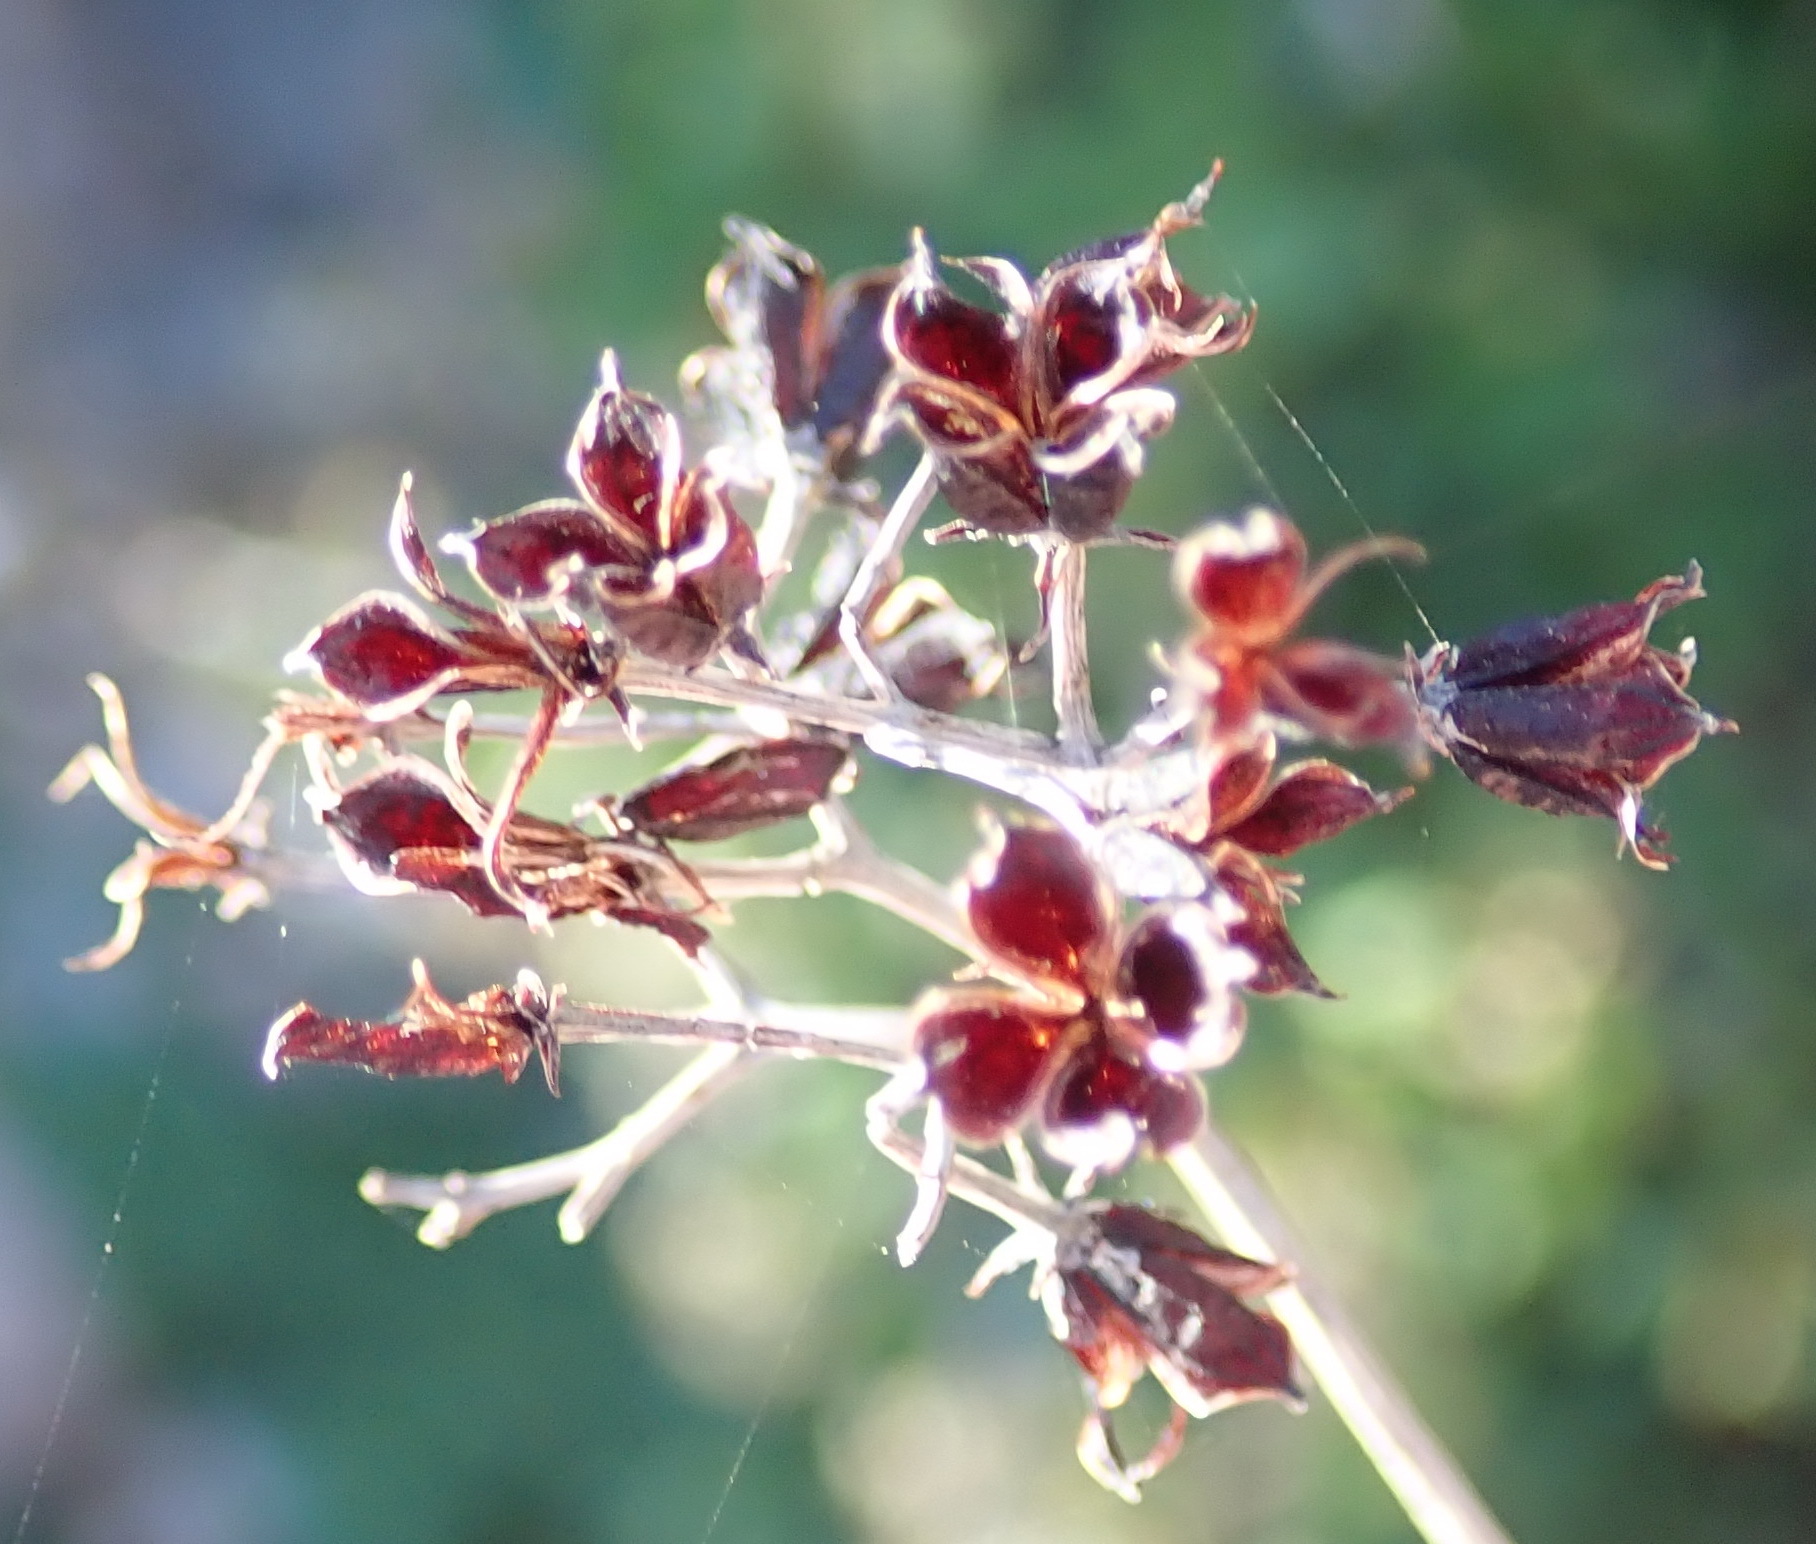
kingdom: Plantae
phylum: Tracheophyta
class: Magnoliopsida
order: Saxifragales
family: Crassulaceae
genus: Kalanchoe
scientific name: Kalanchoe rotundifolia
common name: Common kalanchoe
